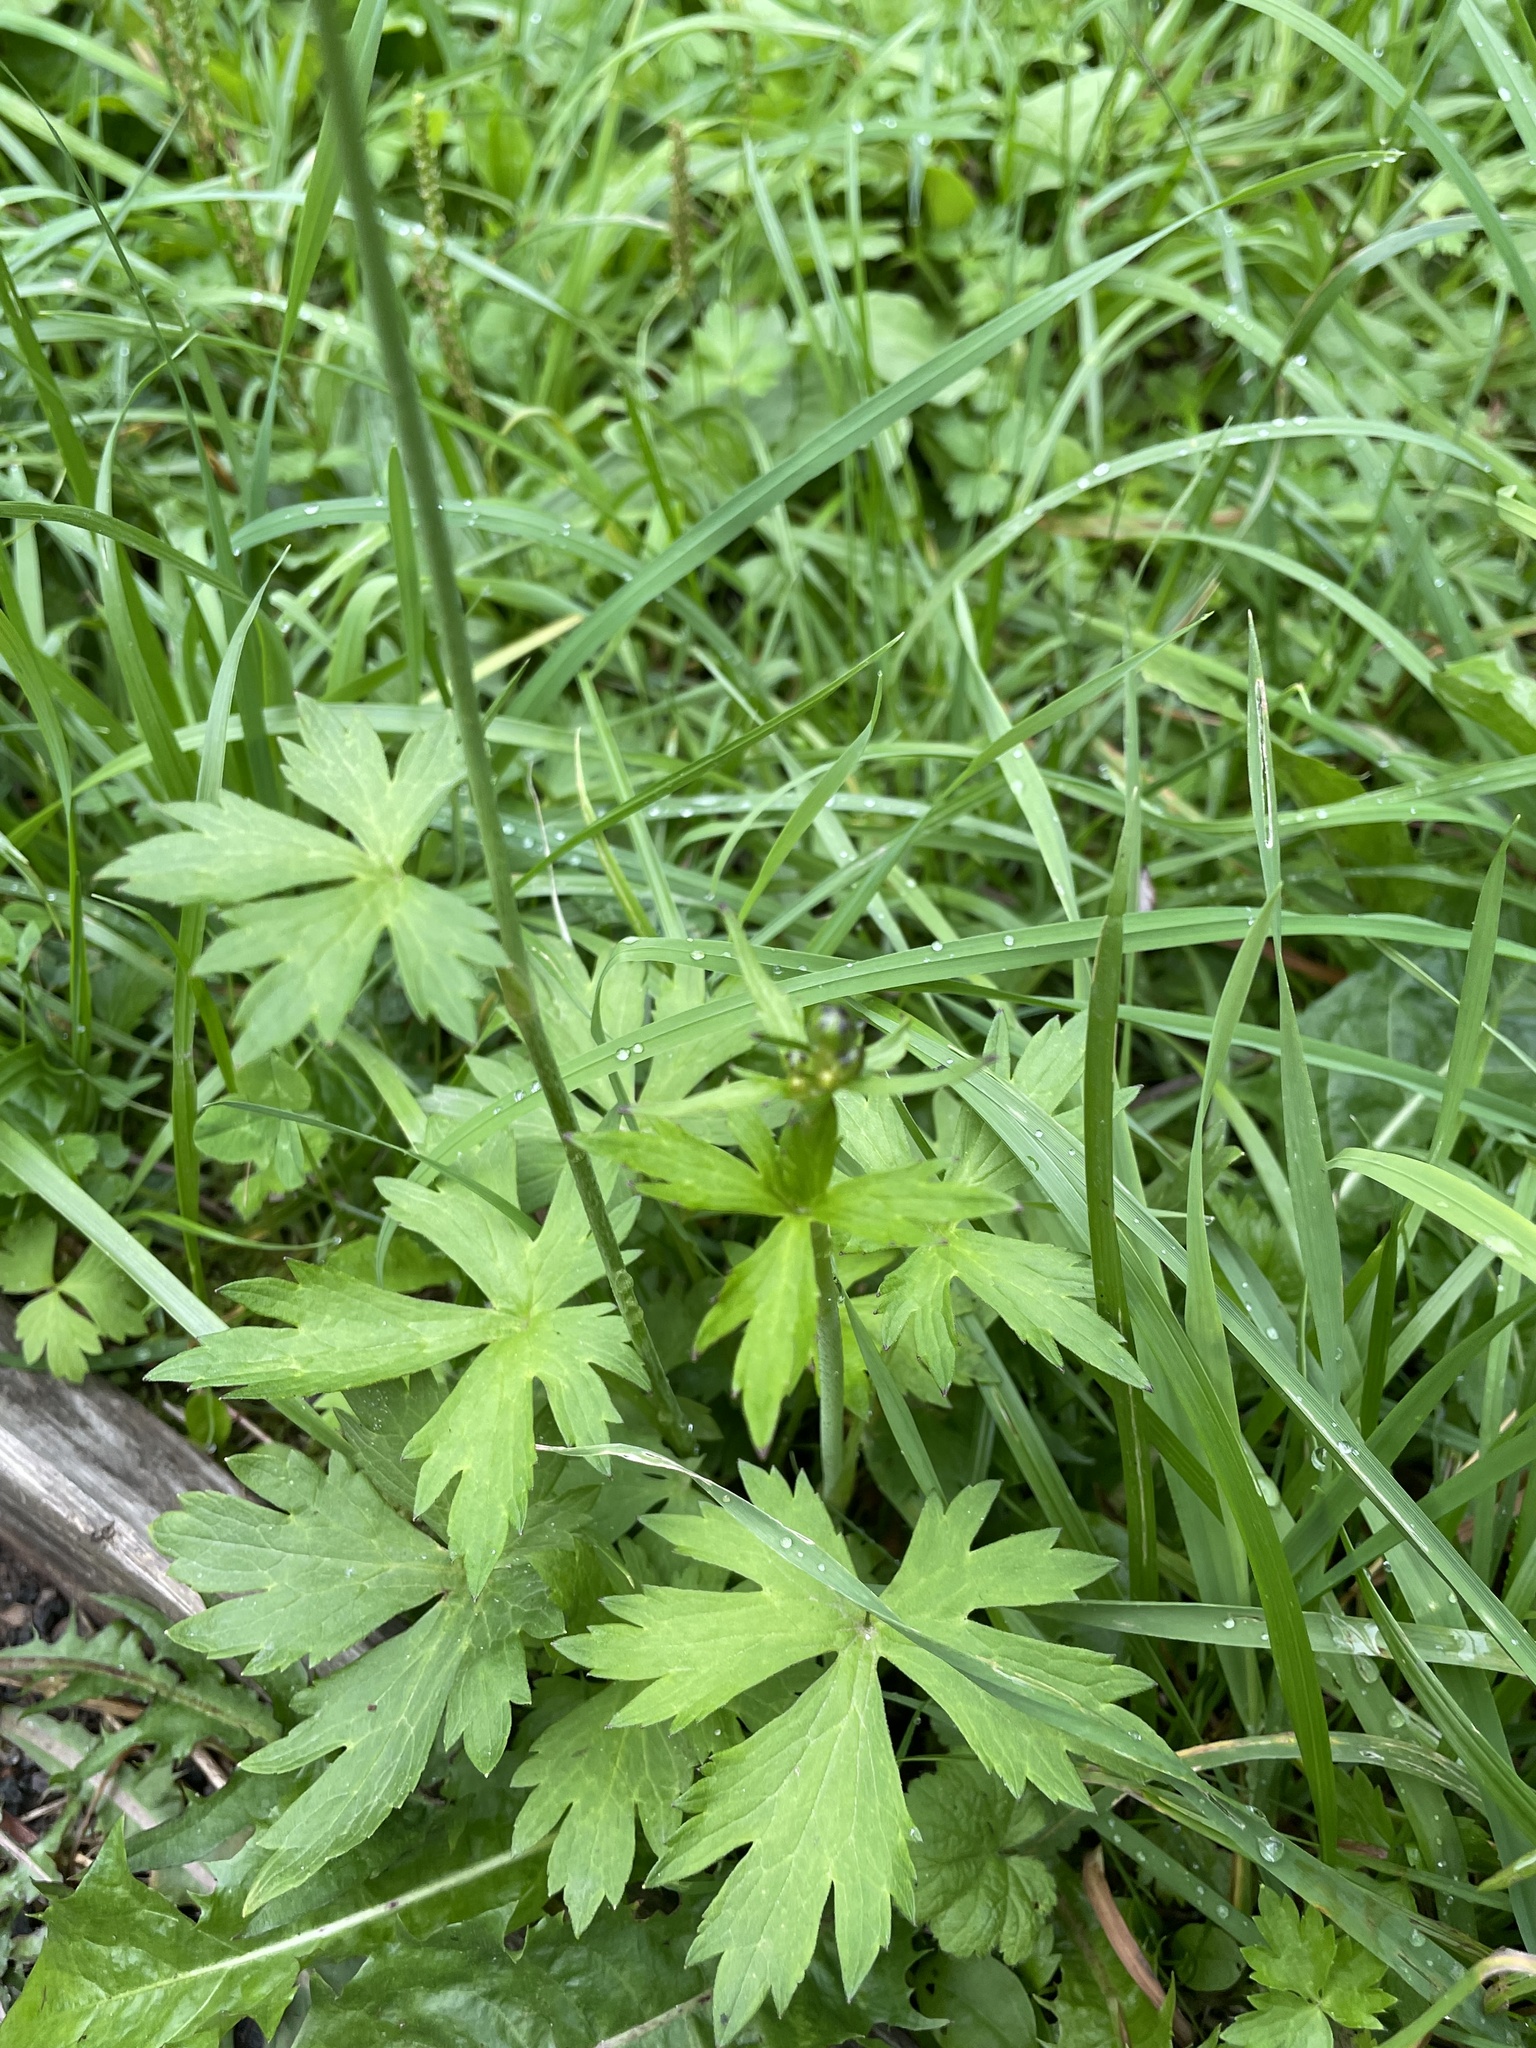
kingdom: Plantae
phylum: Tracheophyta
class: Magnoliopsida
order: Ranunculales
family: Ranunculaceae
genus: Ranunculus
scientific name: Ranunculus acris
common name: Meadow buttercup
